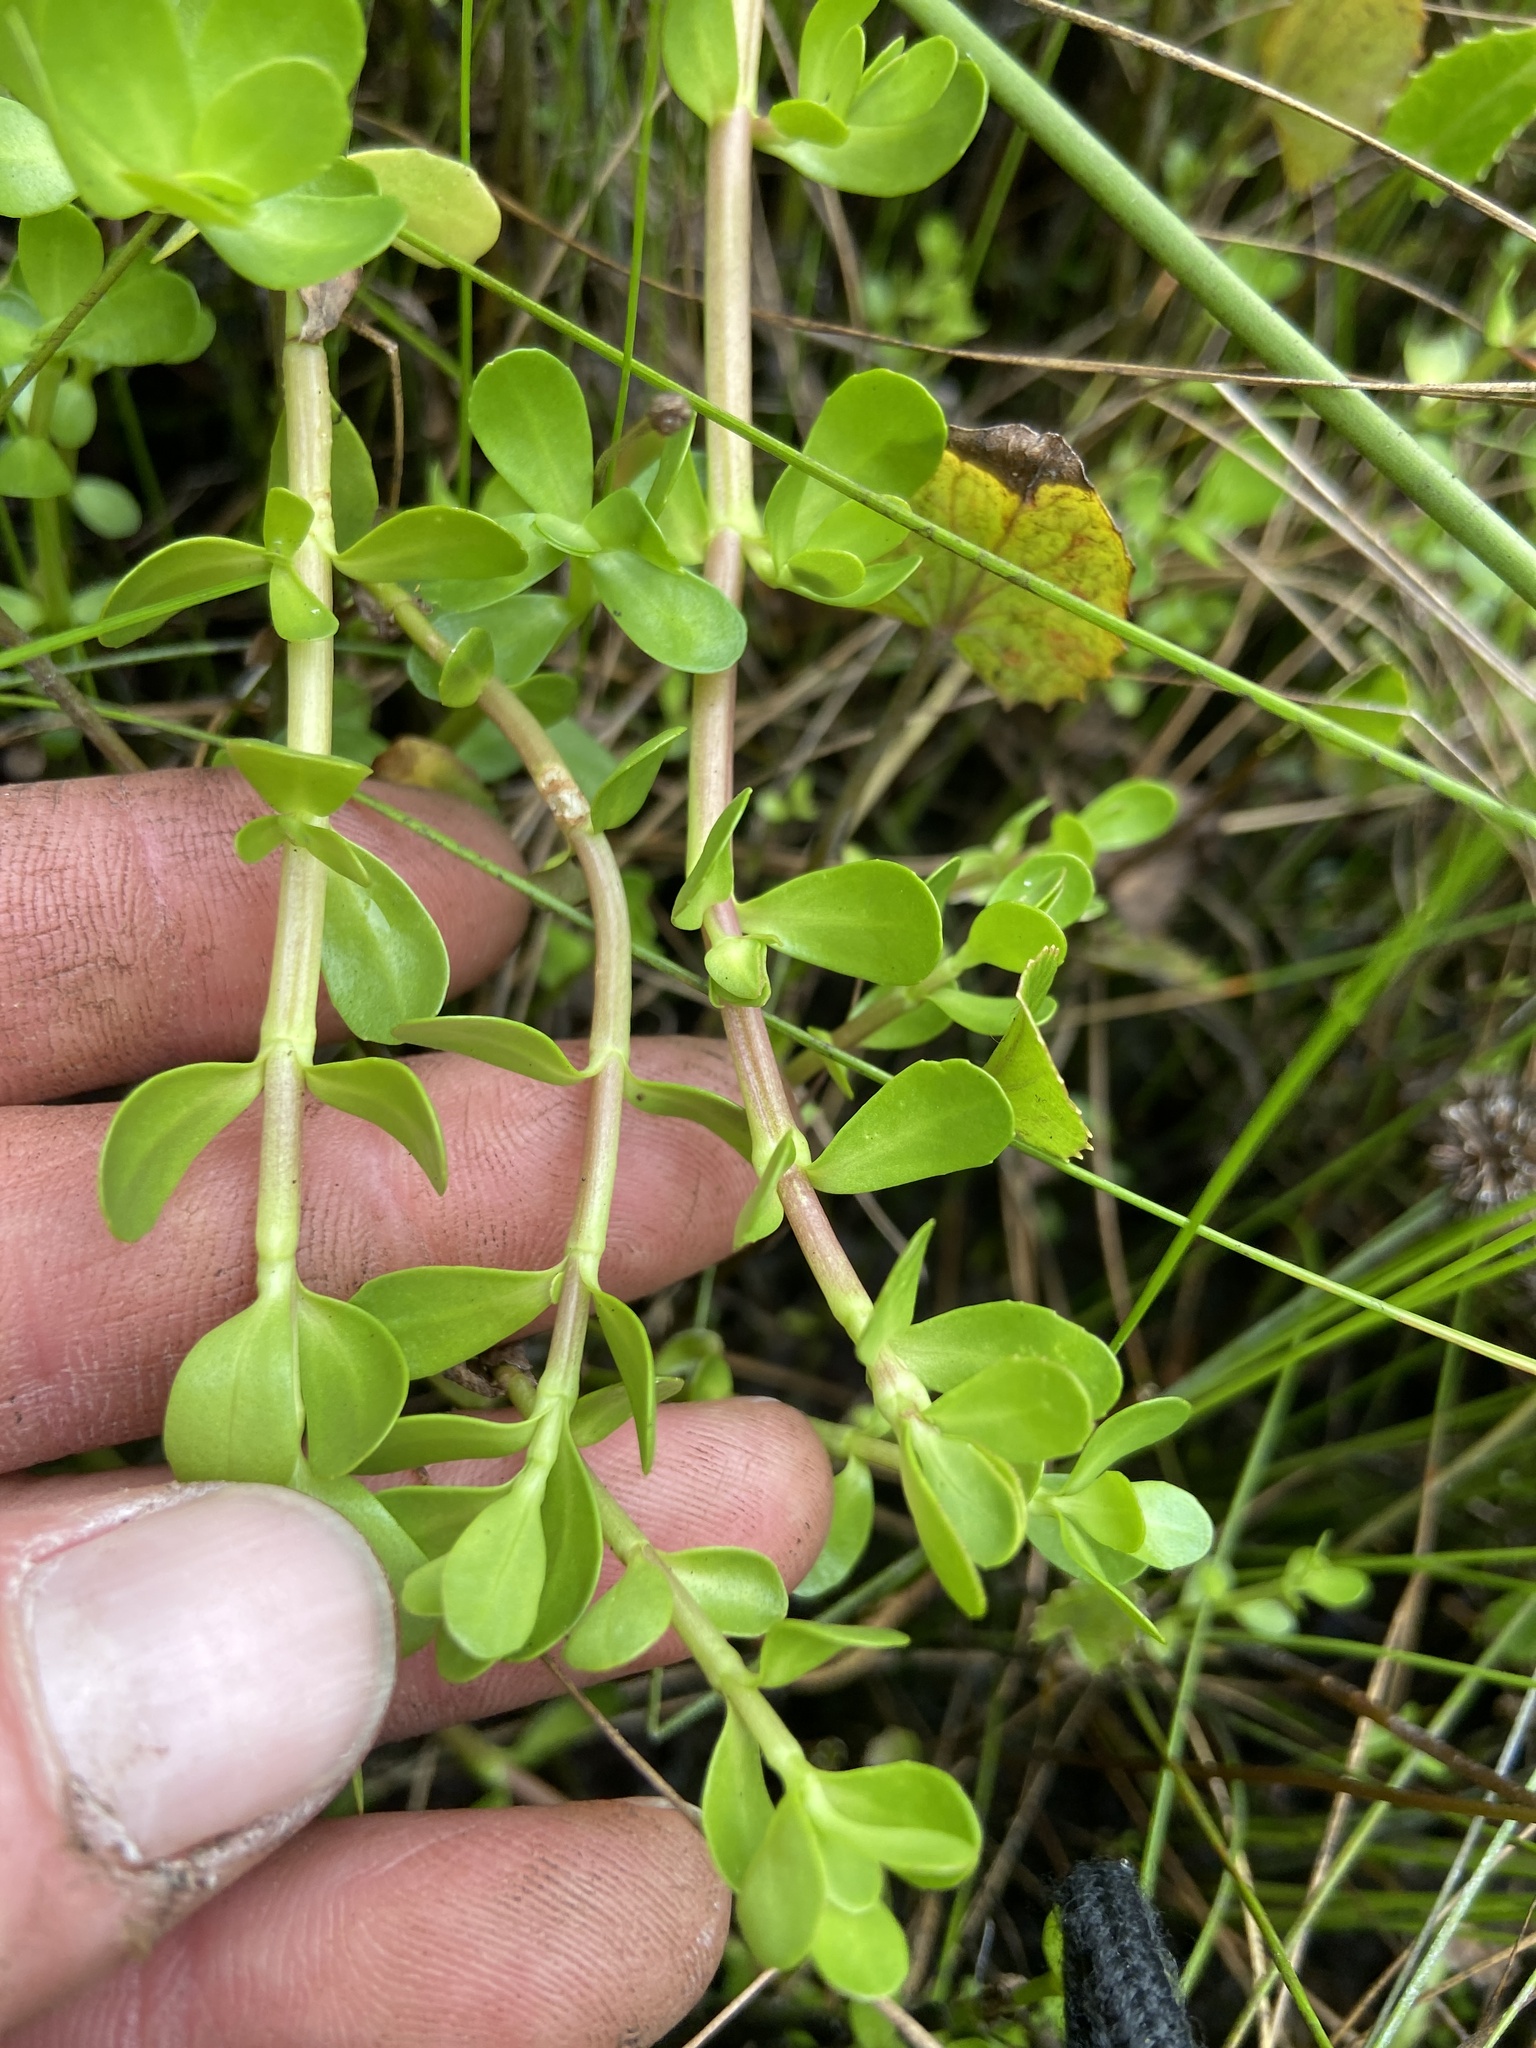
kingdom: Plantae
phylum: Tracheophyta
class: Magnoliopsida
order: Lamiales
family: Plantaginaceae
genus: Bacopa
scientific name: Bacopa monnieri
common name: Indian-pennywort
